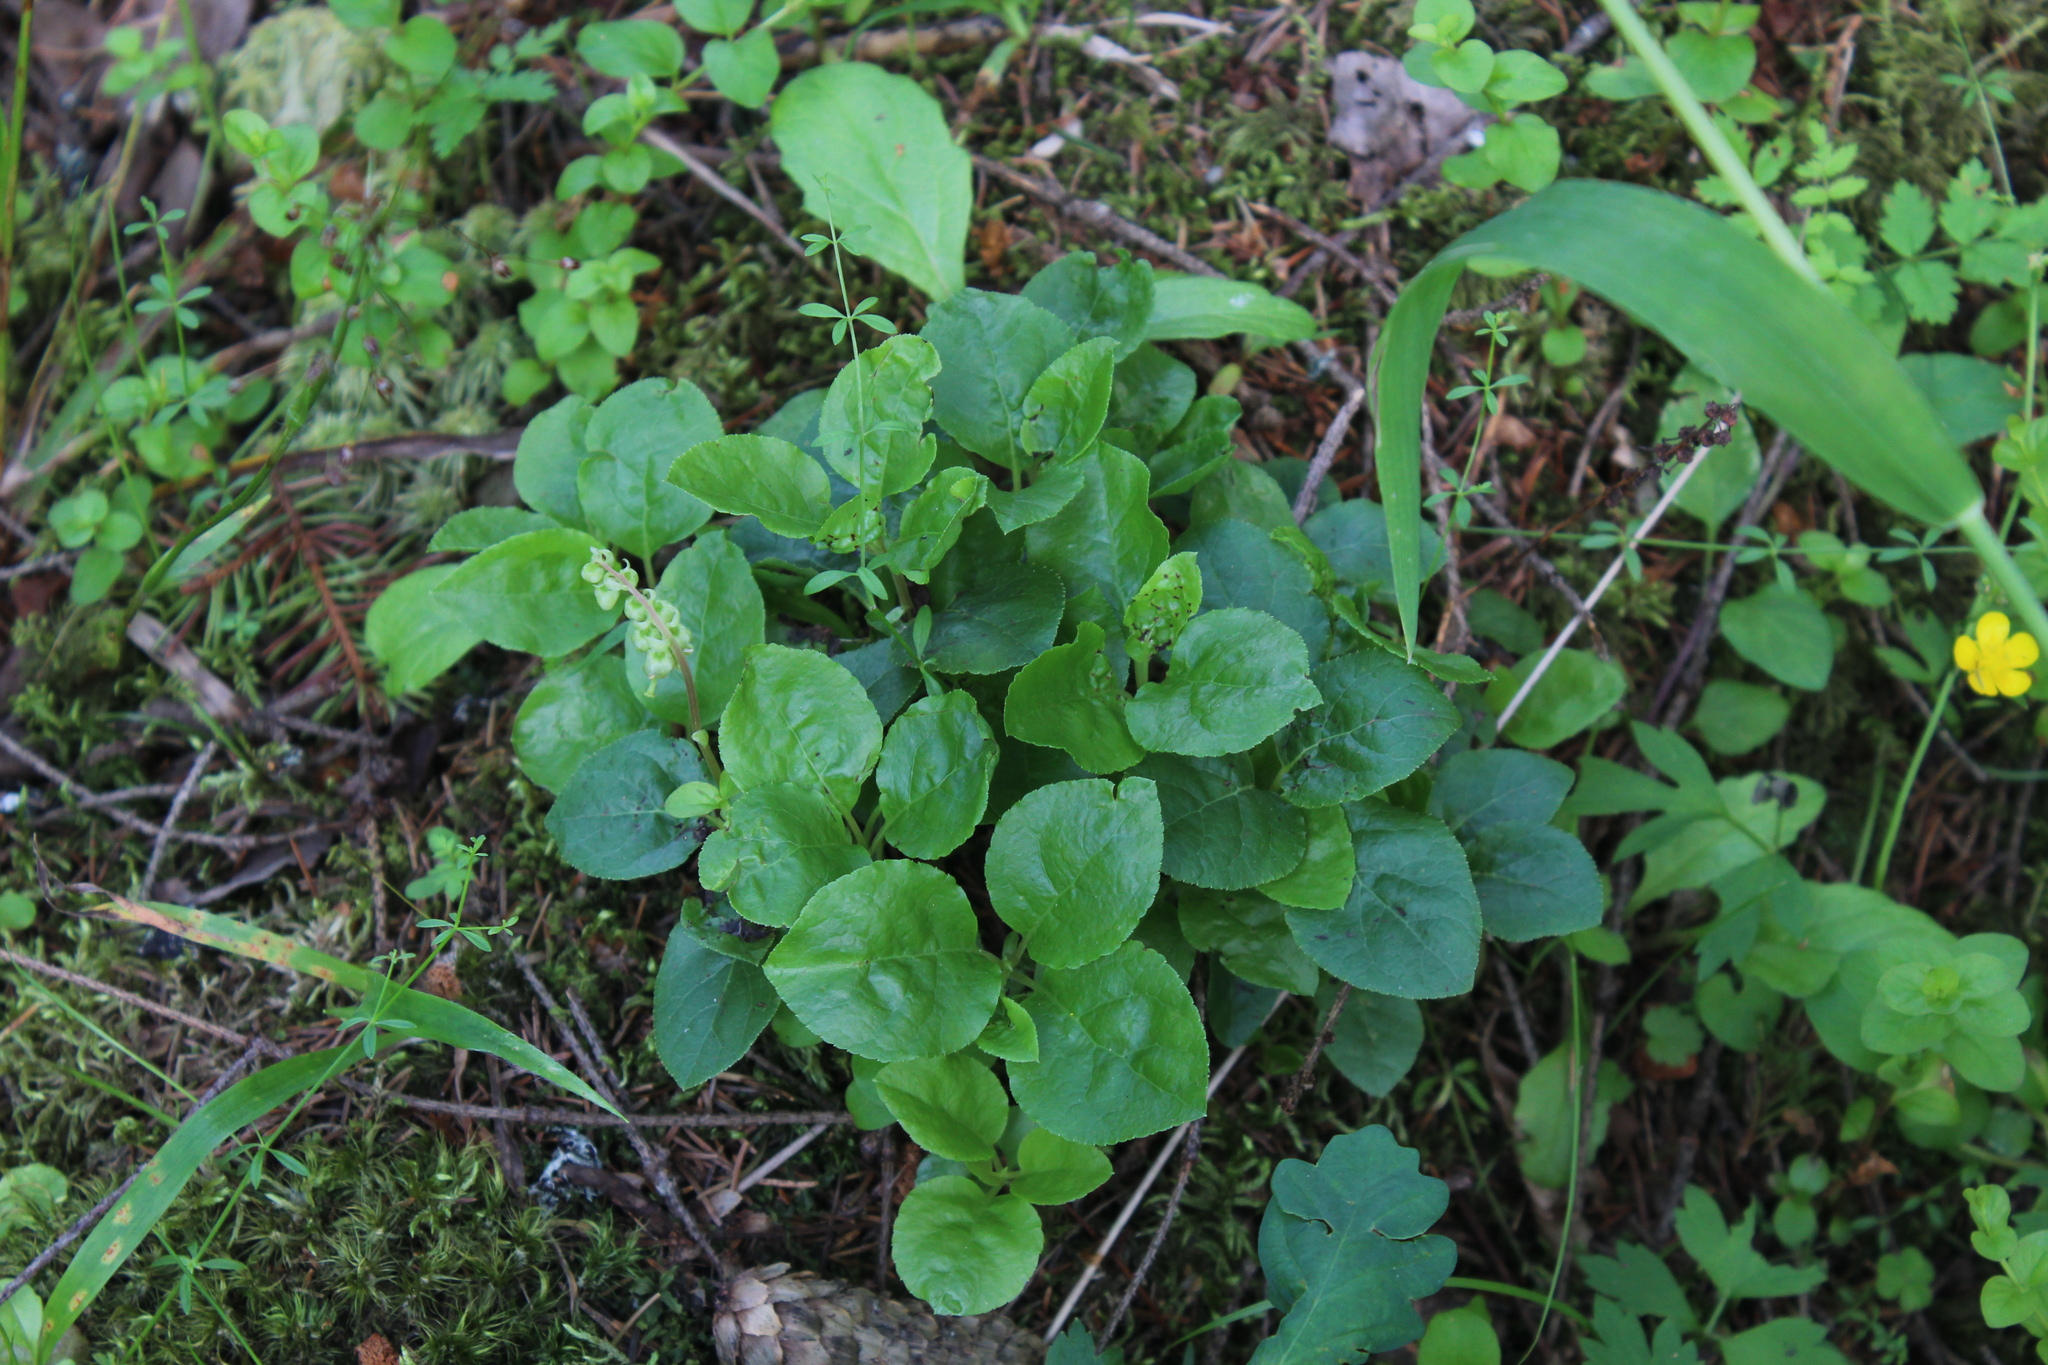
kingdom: Plantae
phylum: Tracheophyta
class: Magnoliopsida
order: Ericales
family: Ericaceae
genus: Orthilia
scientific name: Orthilia secunda
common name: One-sided orthilia
